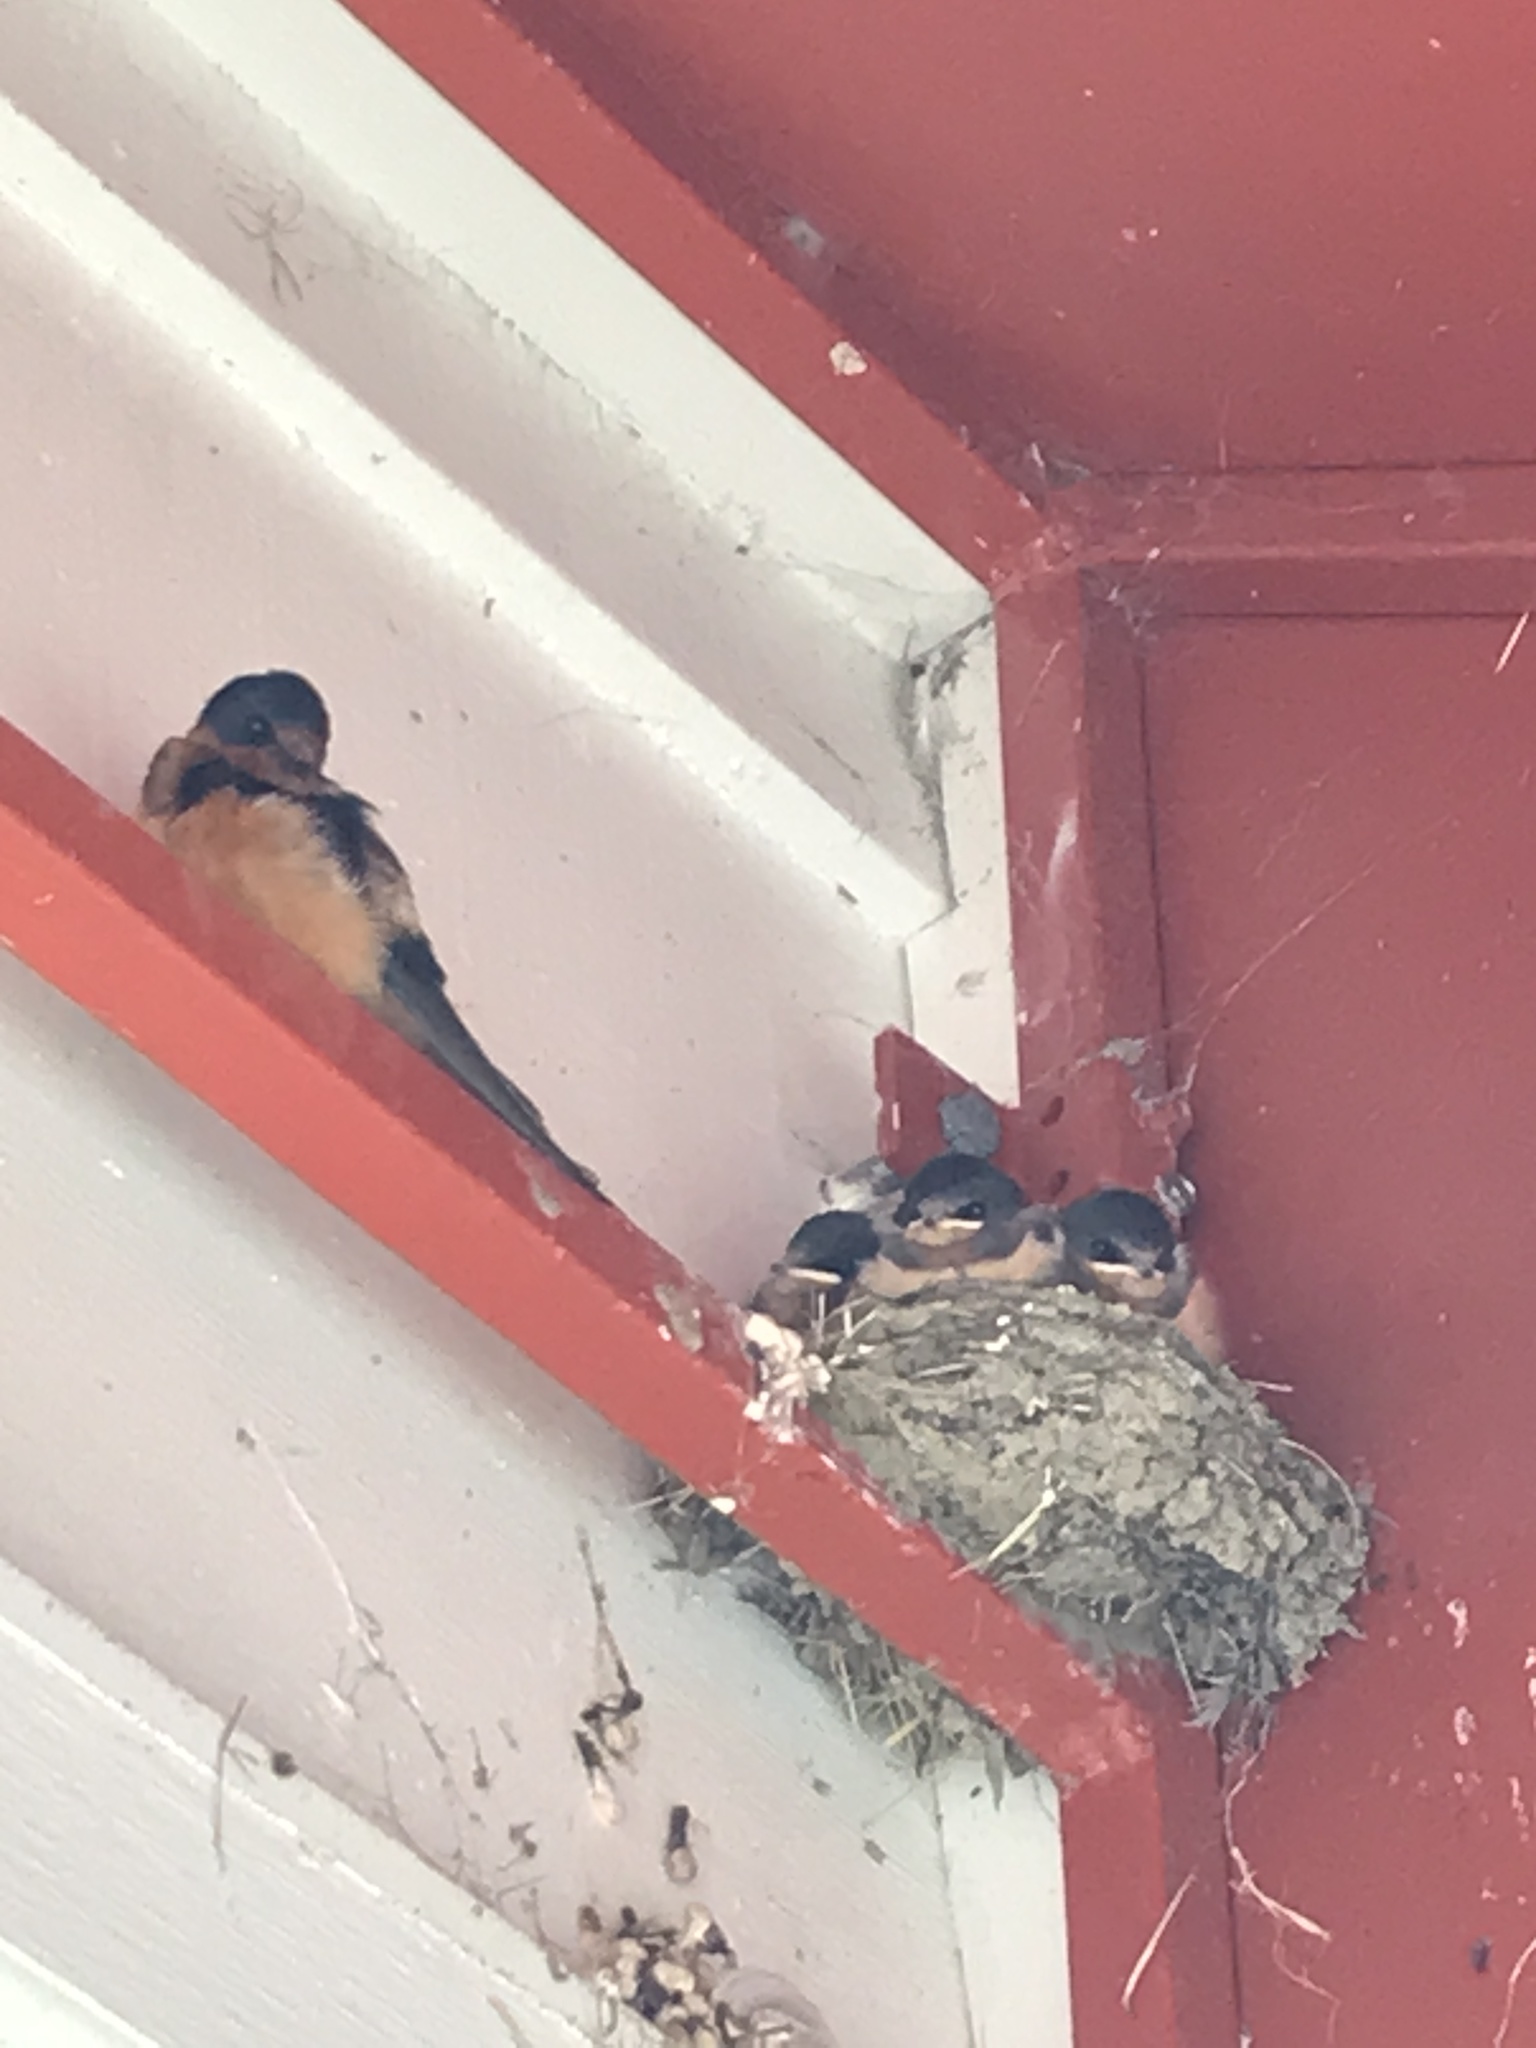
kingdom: Animalia
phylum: Chordata
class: Aves
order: Passeriformes
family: Hirundinidae
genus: Hirundo
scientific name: Hirundo rustica
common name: Barn swallow
